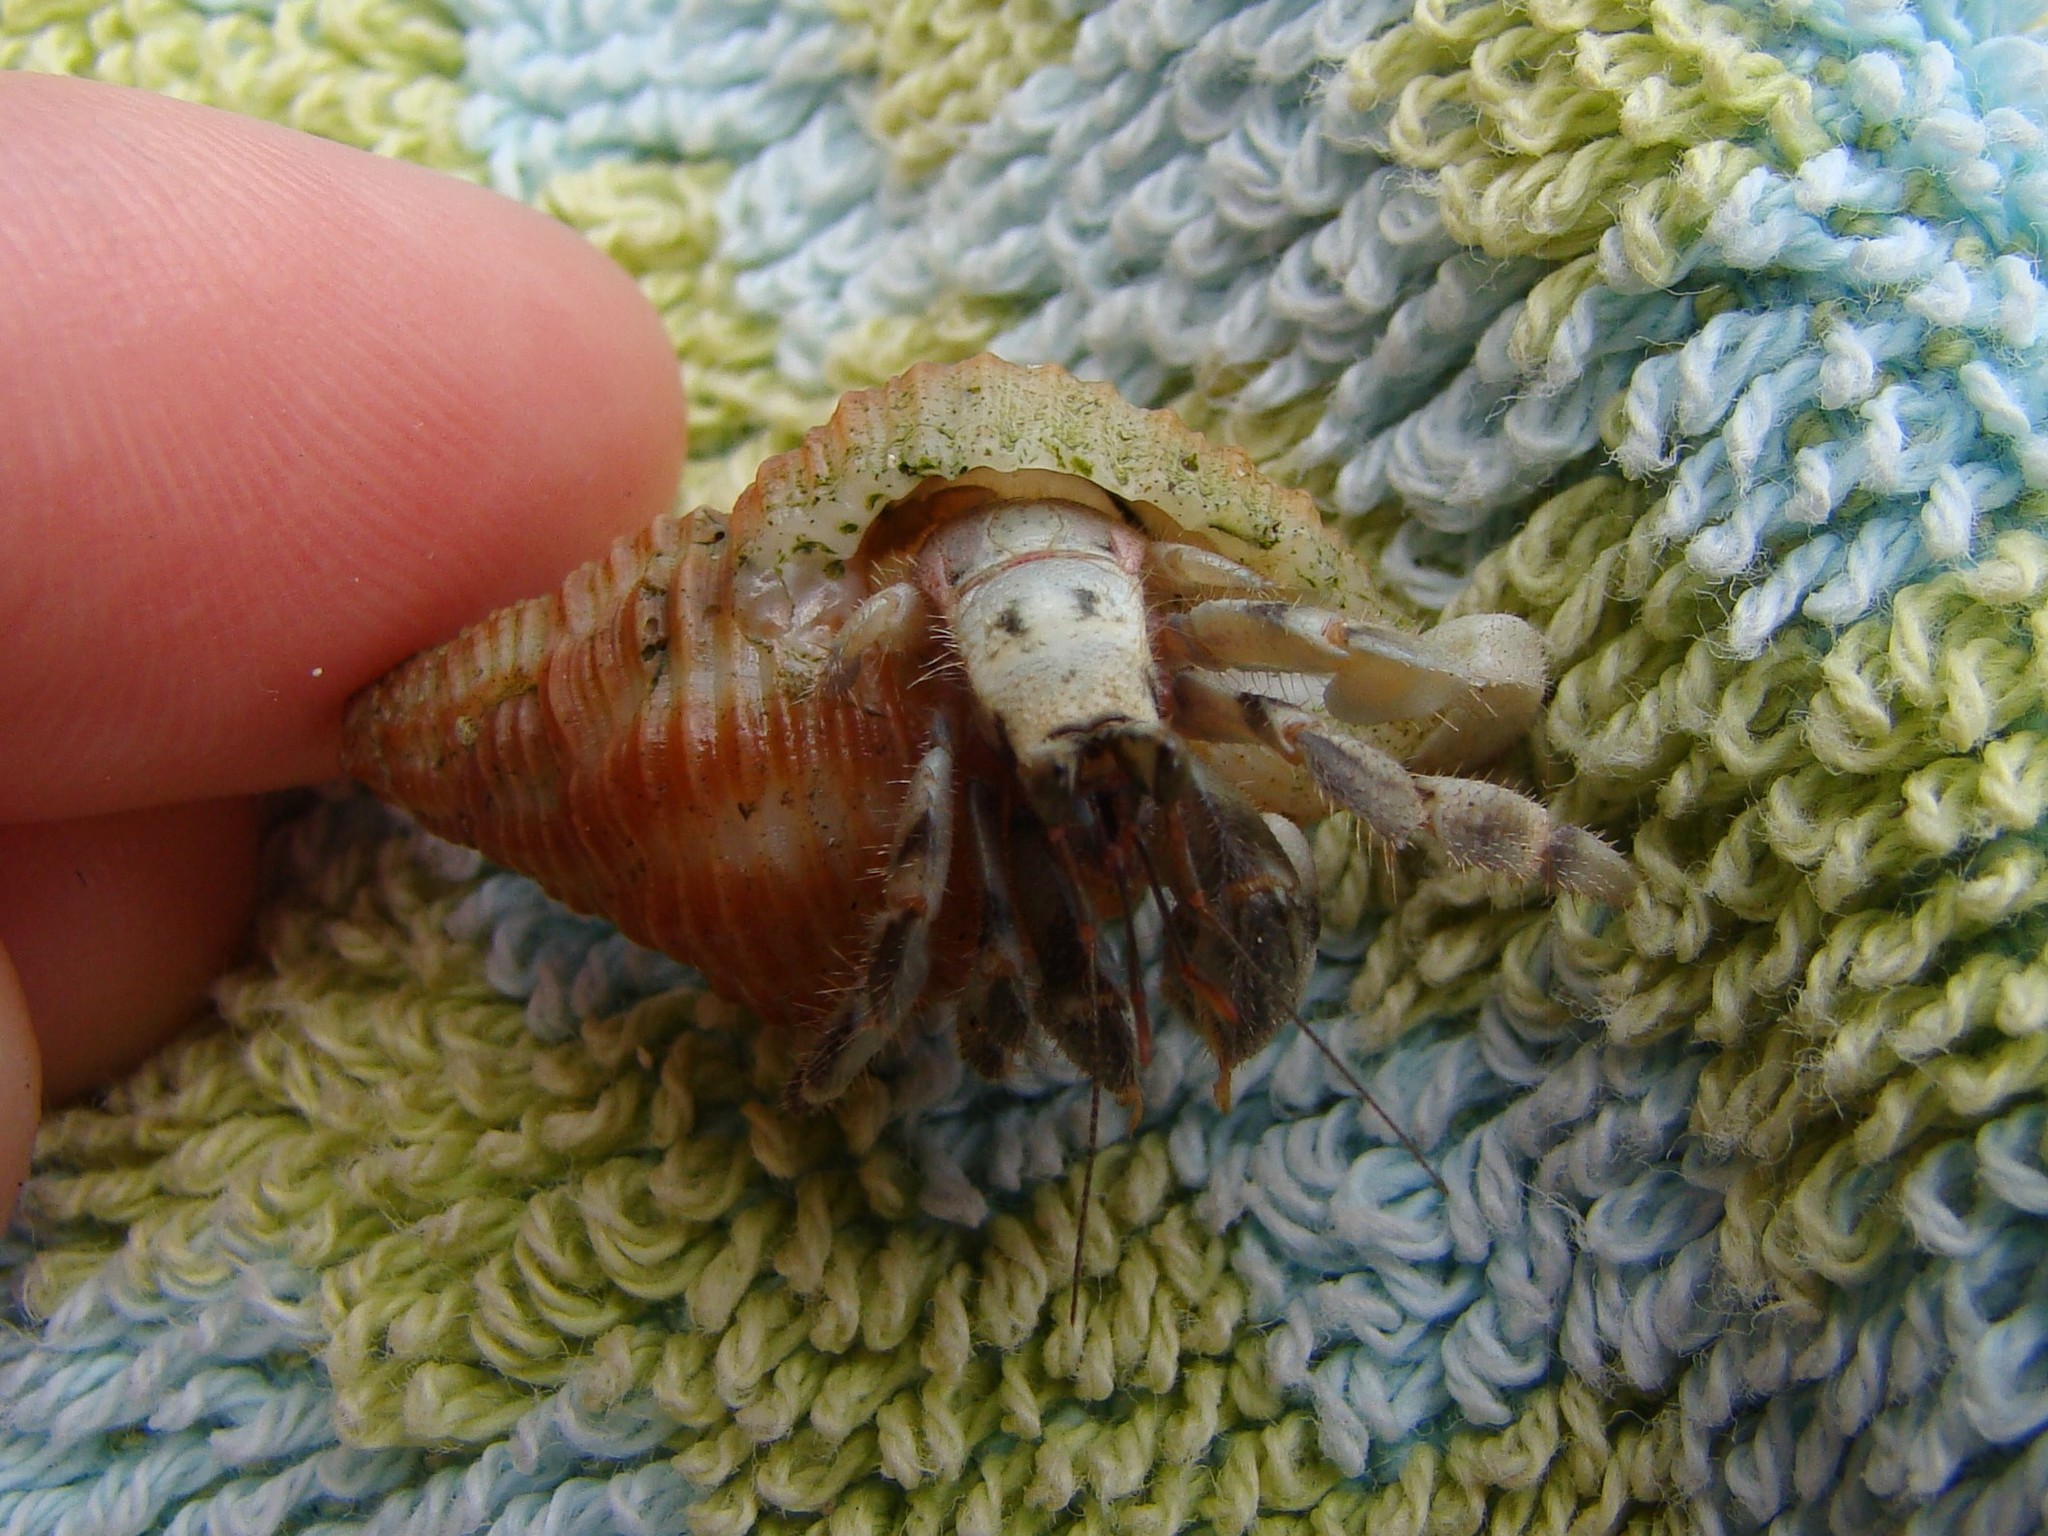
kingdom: Animalia
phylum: Arthropoda
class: Malacostraca
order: Decapoda
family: Coenobitidae
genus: Coenobita
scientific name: Coenobita rugosus
